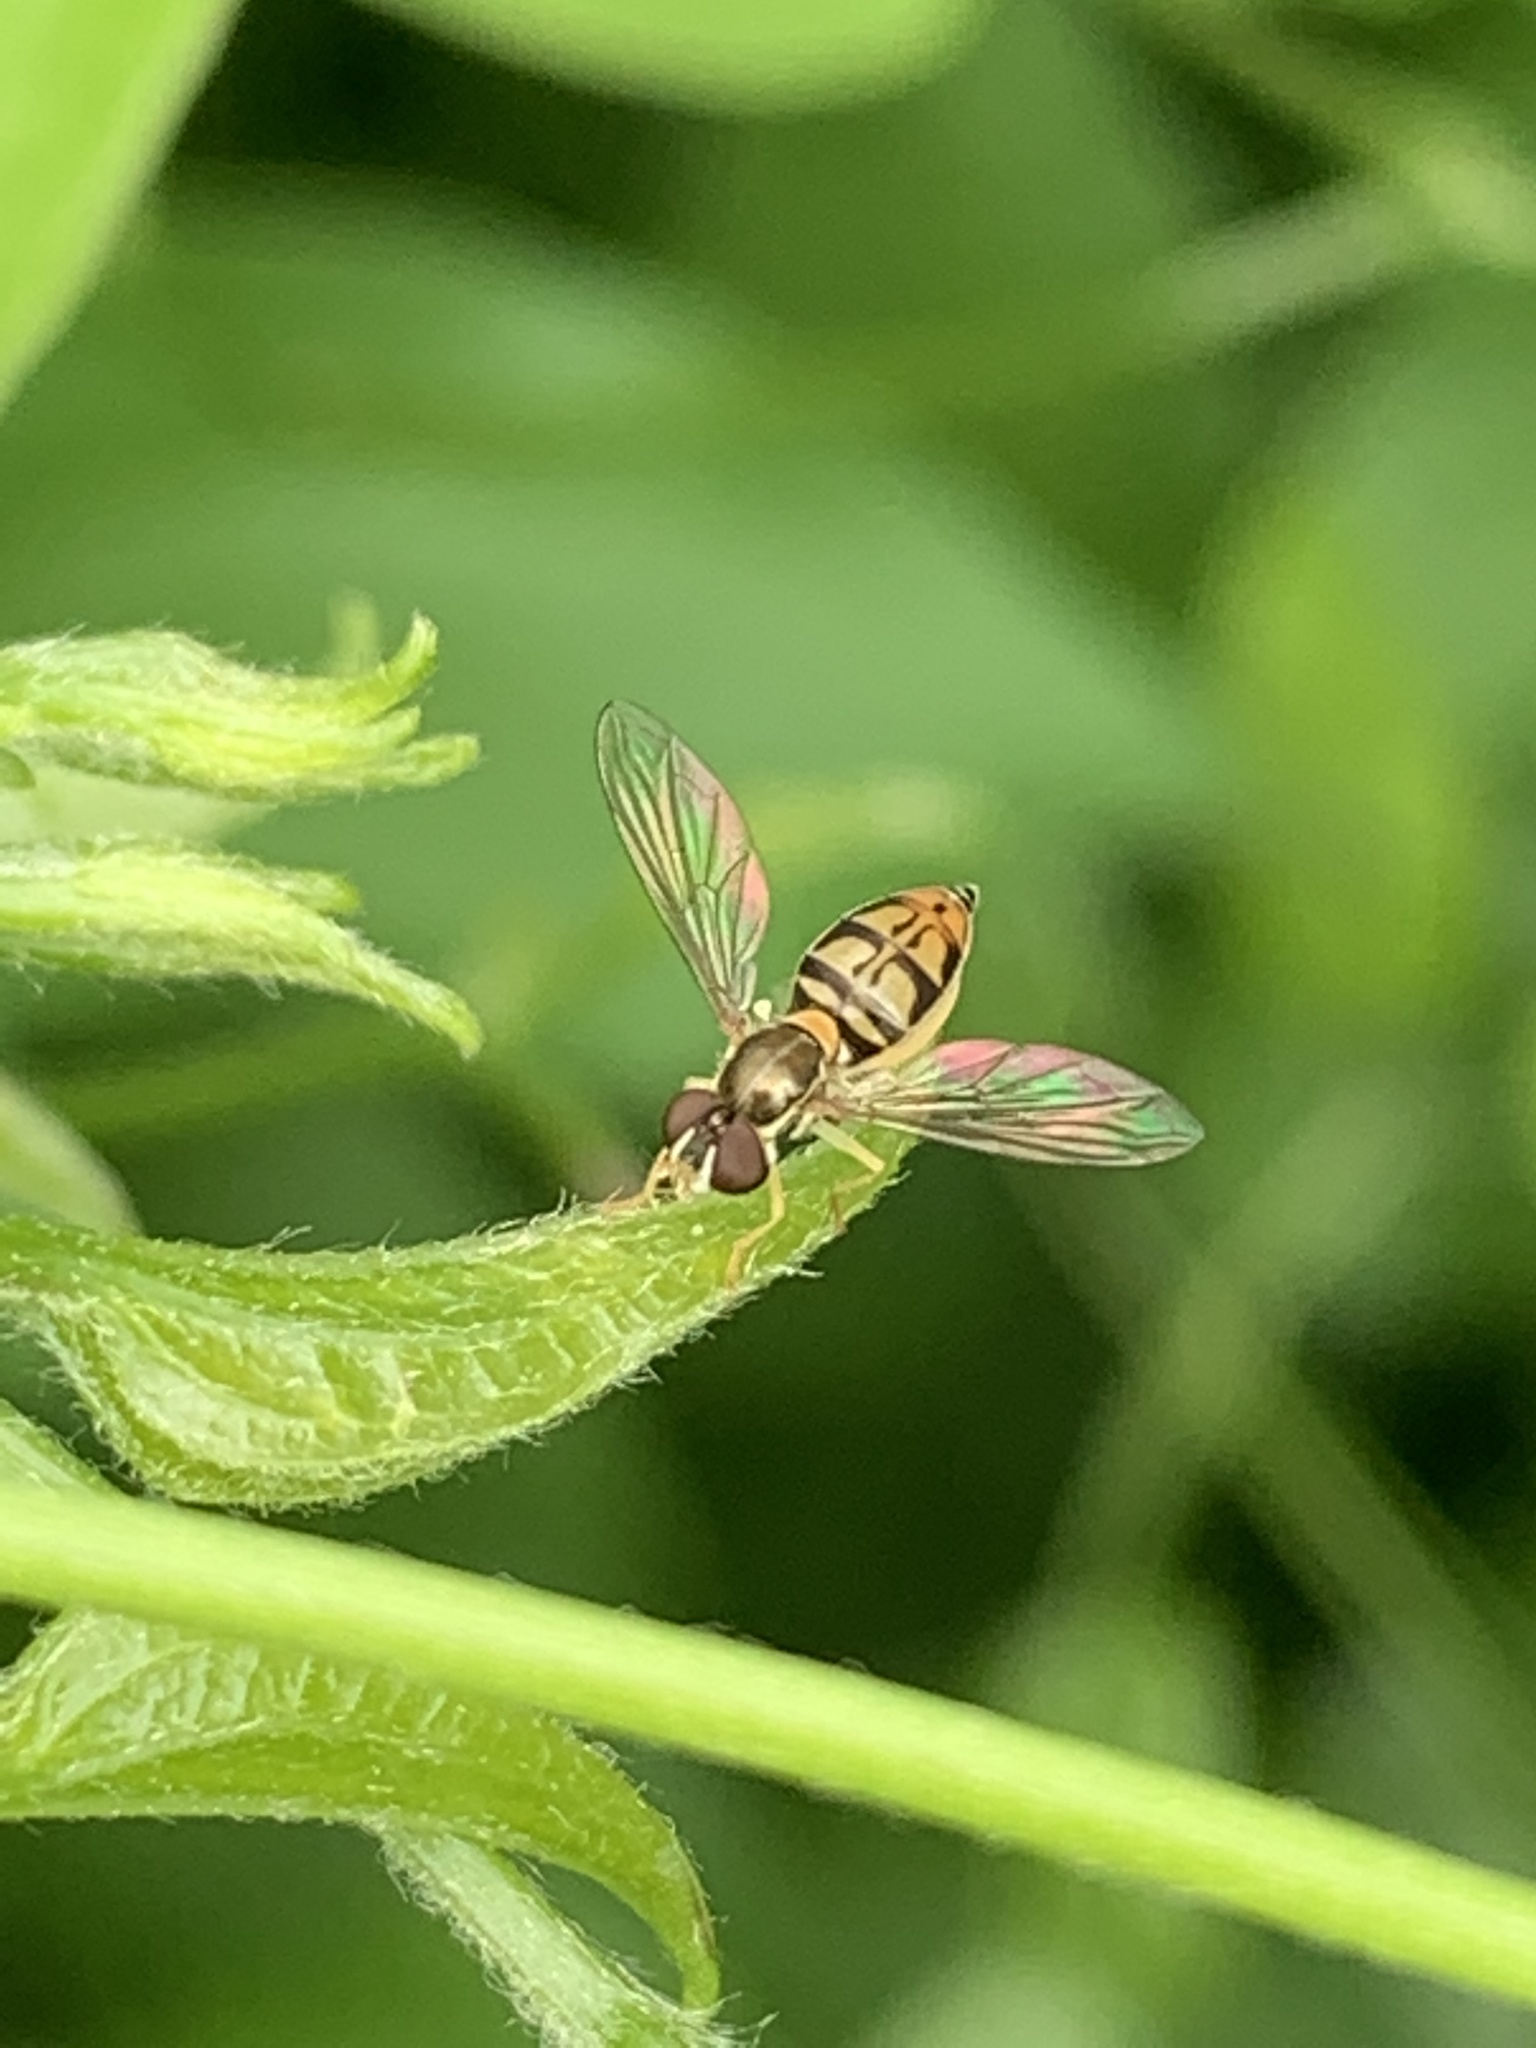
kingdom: Animalia
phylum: Arthropoda
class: Insecta
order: Diptera
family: Syrphidae
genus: Toxomerus
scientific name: Toxomerus marginatus
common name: Syrphid fly
